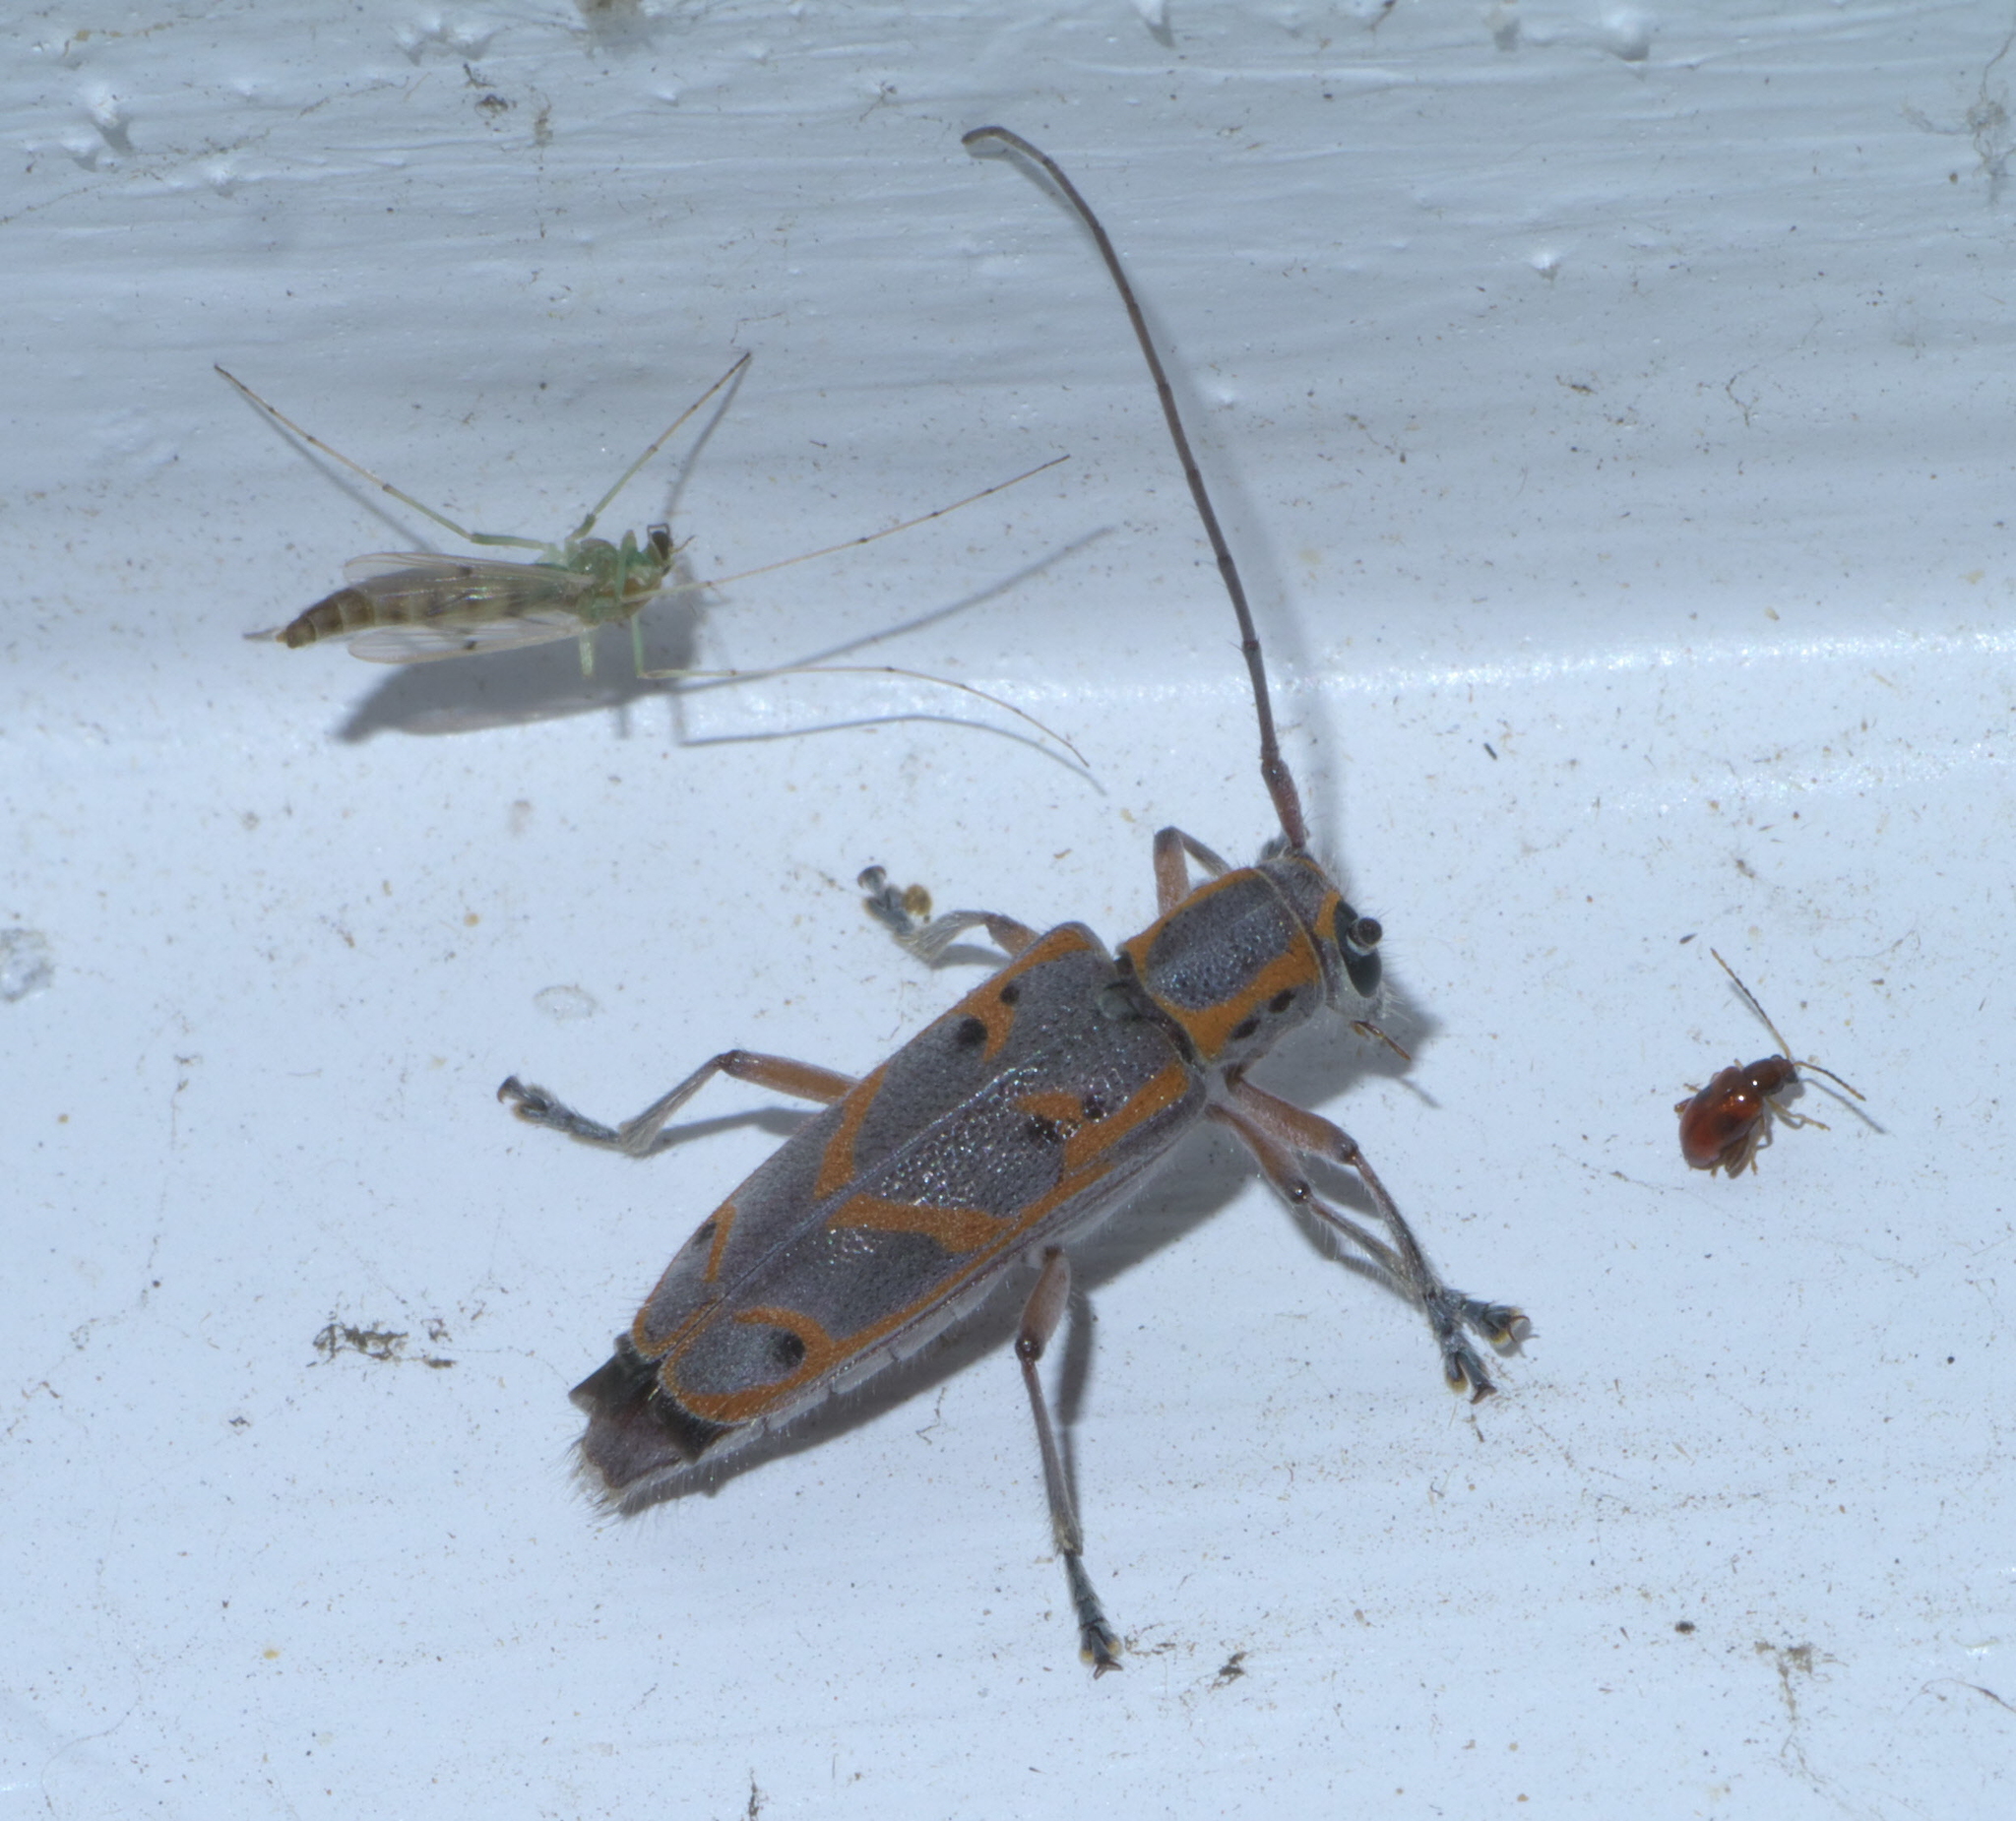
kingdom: Animalia
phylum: Arthropoda
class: Insecta
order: Coleoptera
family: Cerambycidae
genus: Saperda
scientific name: Saperda tridentata
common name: Elm borer
